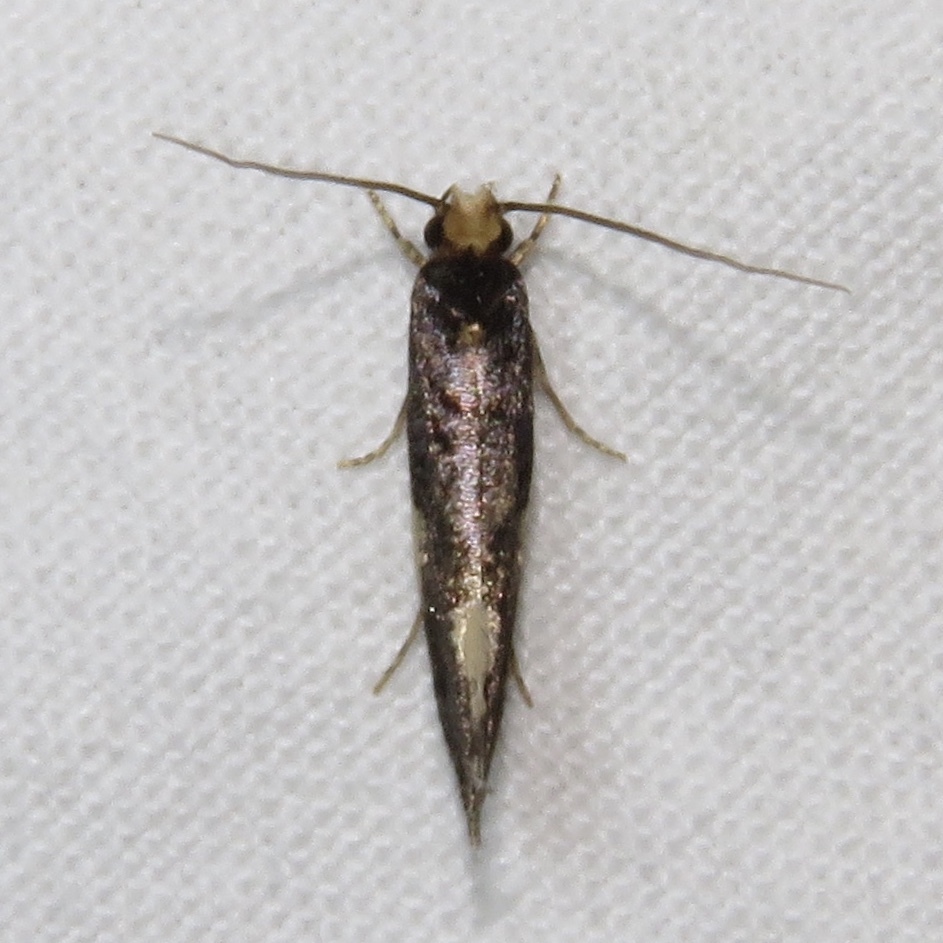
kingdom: Animalia
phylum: Arthropoda
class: Insecta
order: Lepidoptera
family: Tineidae
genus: Monopis
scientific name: Monopis spilotella
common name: Orange-headed monopis
